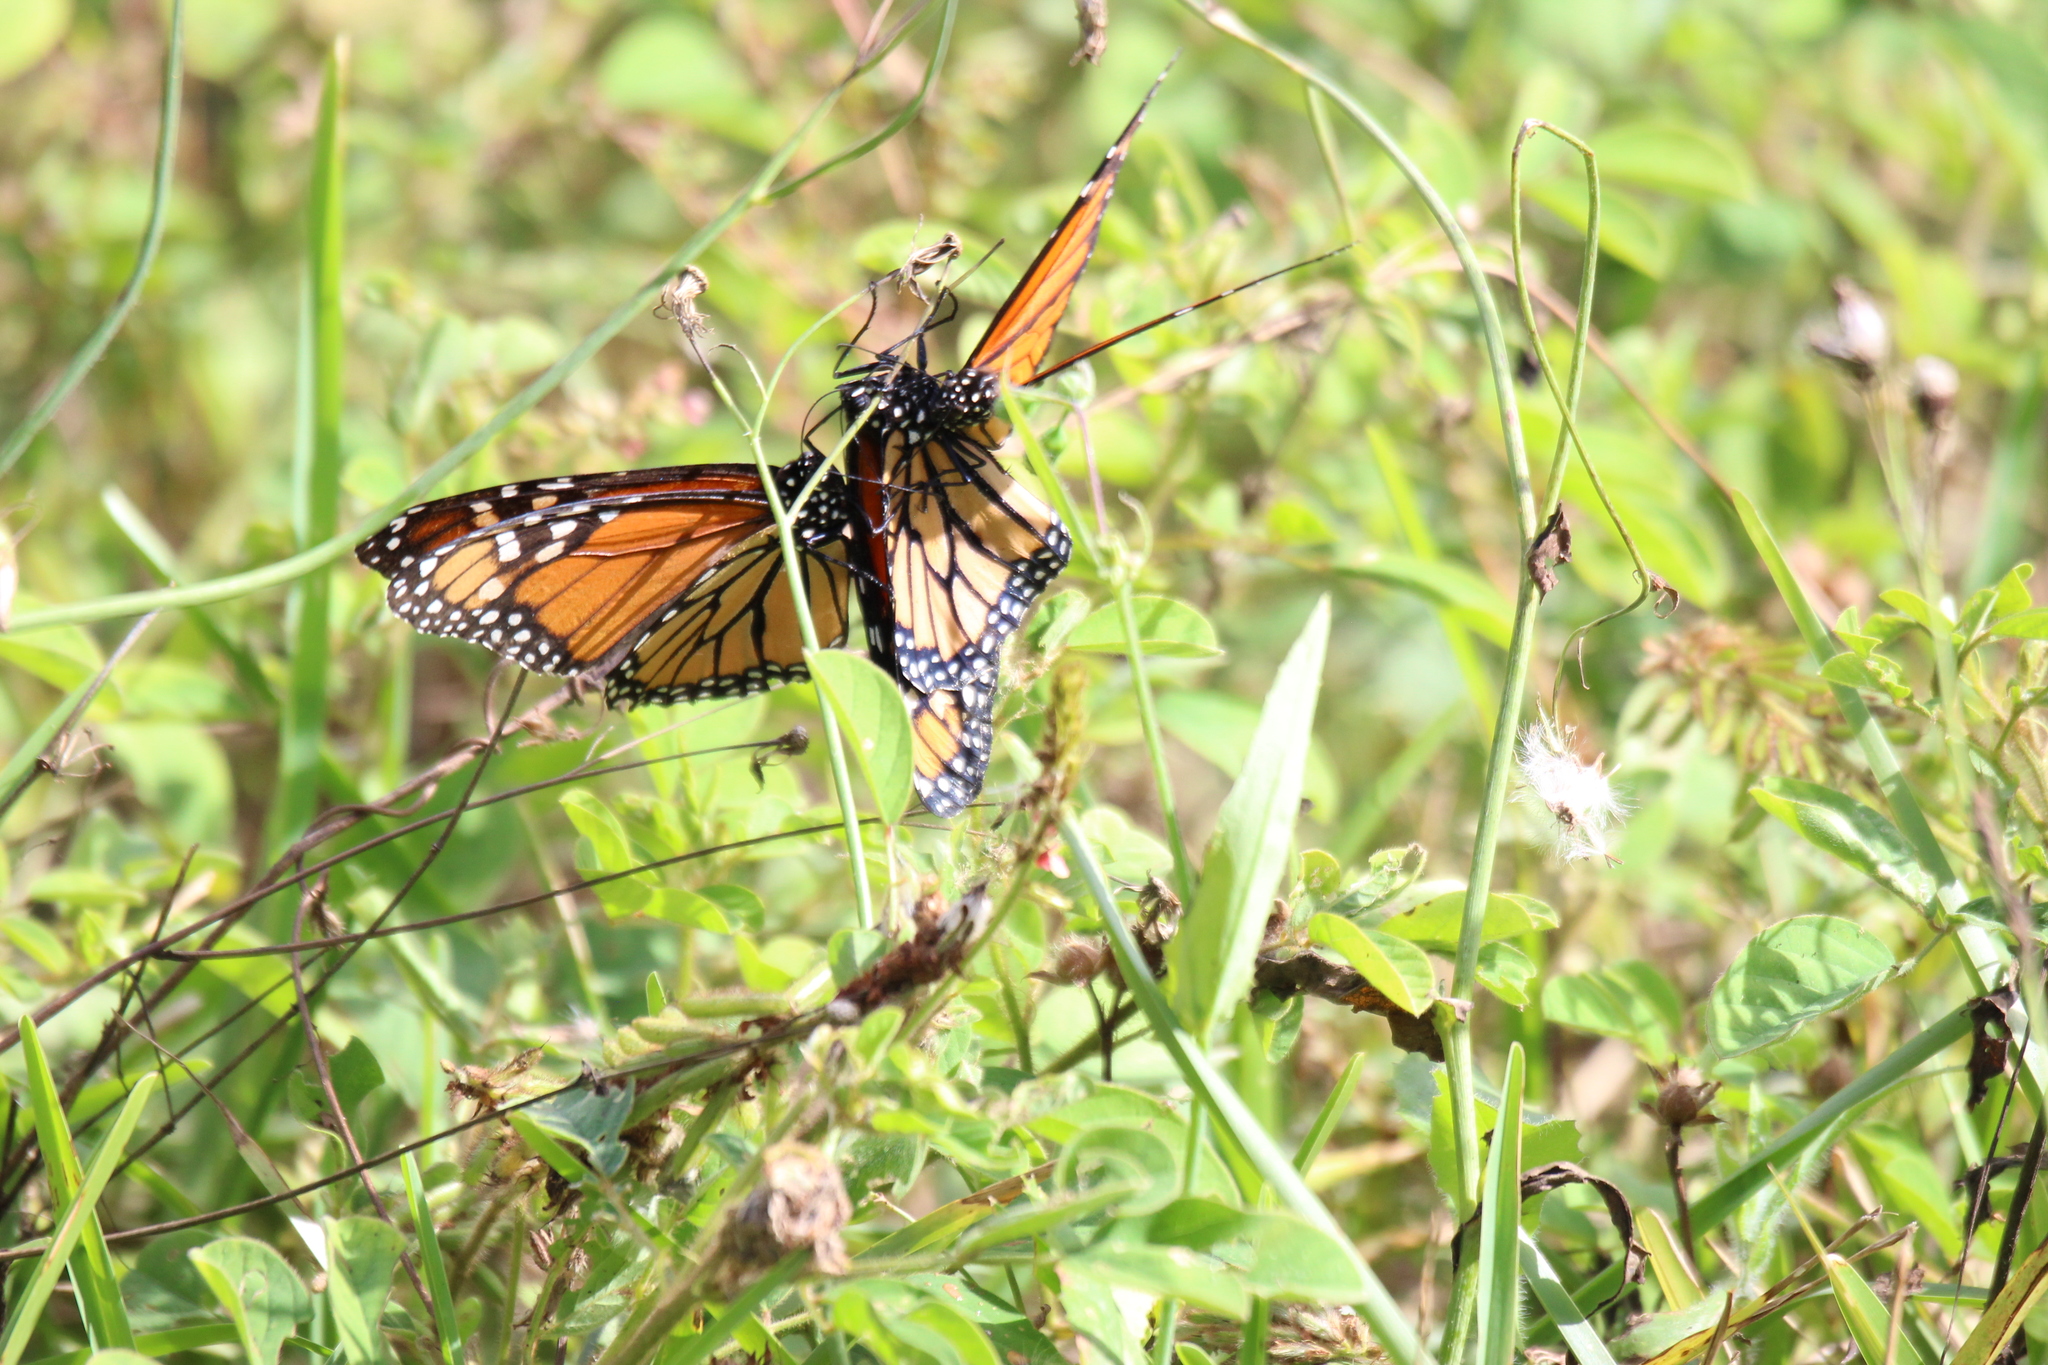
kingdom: Animalia
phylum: Arthropoda
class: Insecta
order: Lepidoptera
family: Nymphalidae
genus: Danaus
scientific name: Danaus plexippus
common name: Monarch
